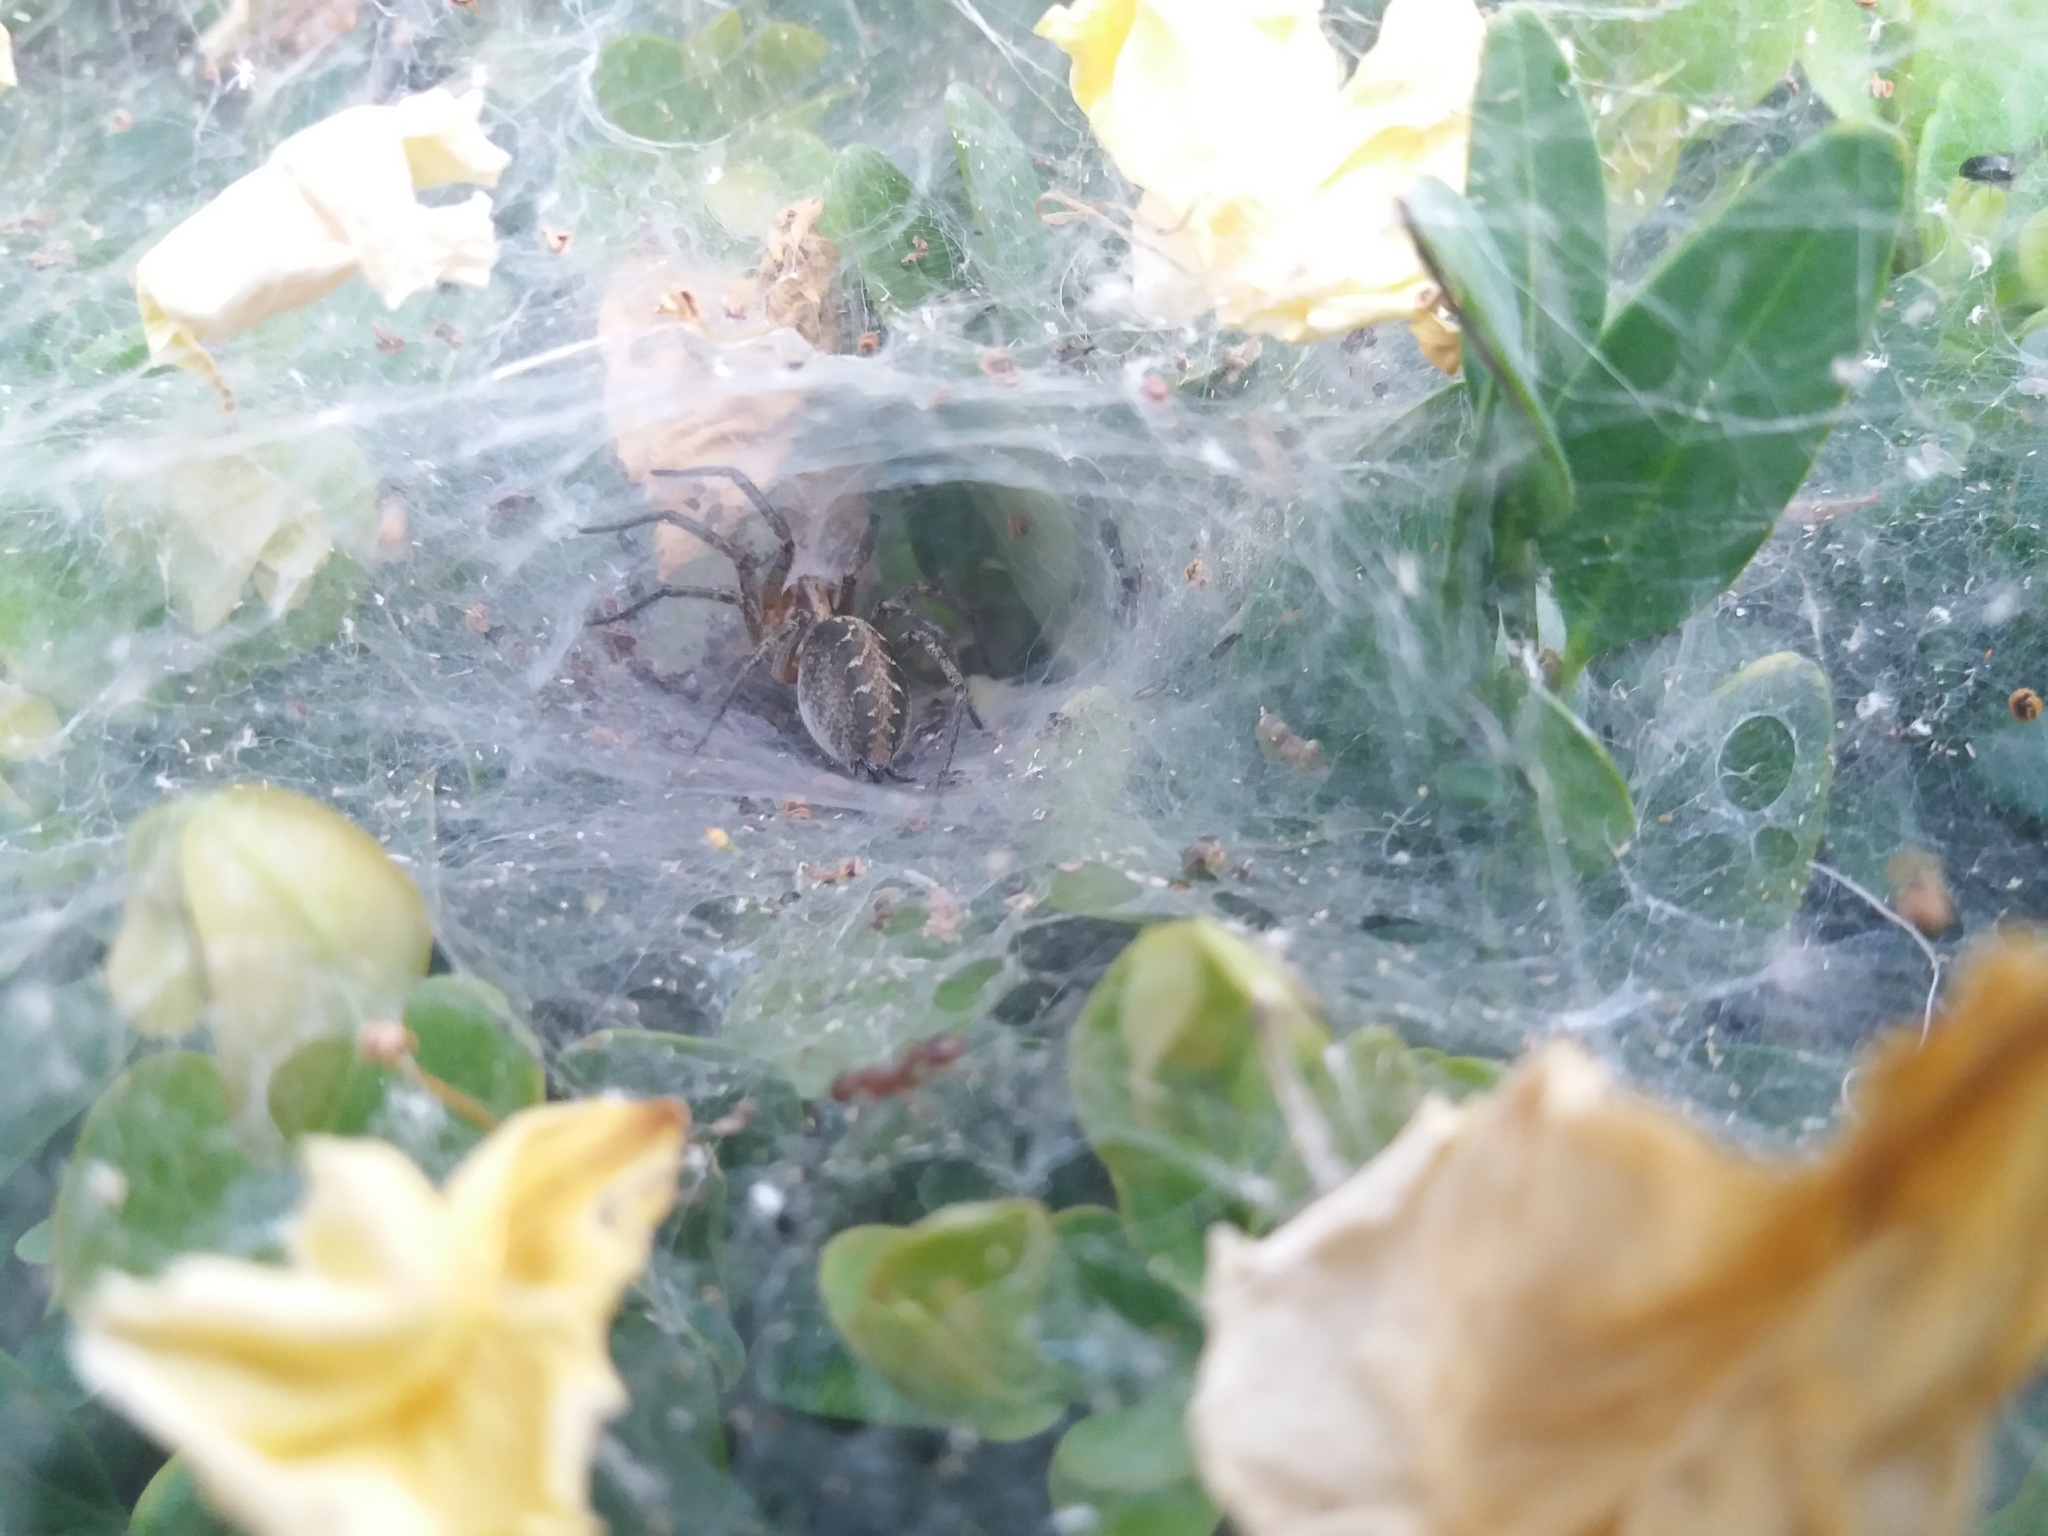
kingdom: Animalia
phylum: Arthropoda
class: Arachnida
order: Araneae
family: Agelenidae
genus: Agelena
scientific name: Agelena labyrinthica
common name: Labyrinth spider
